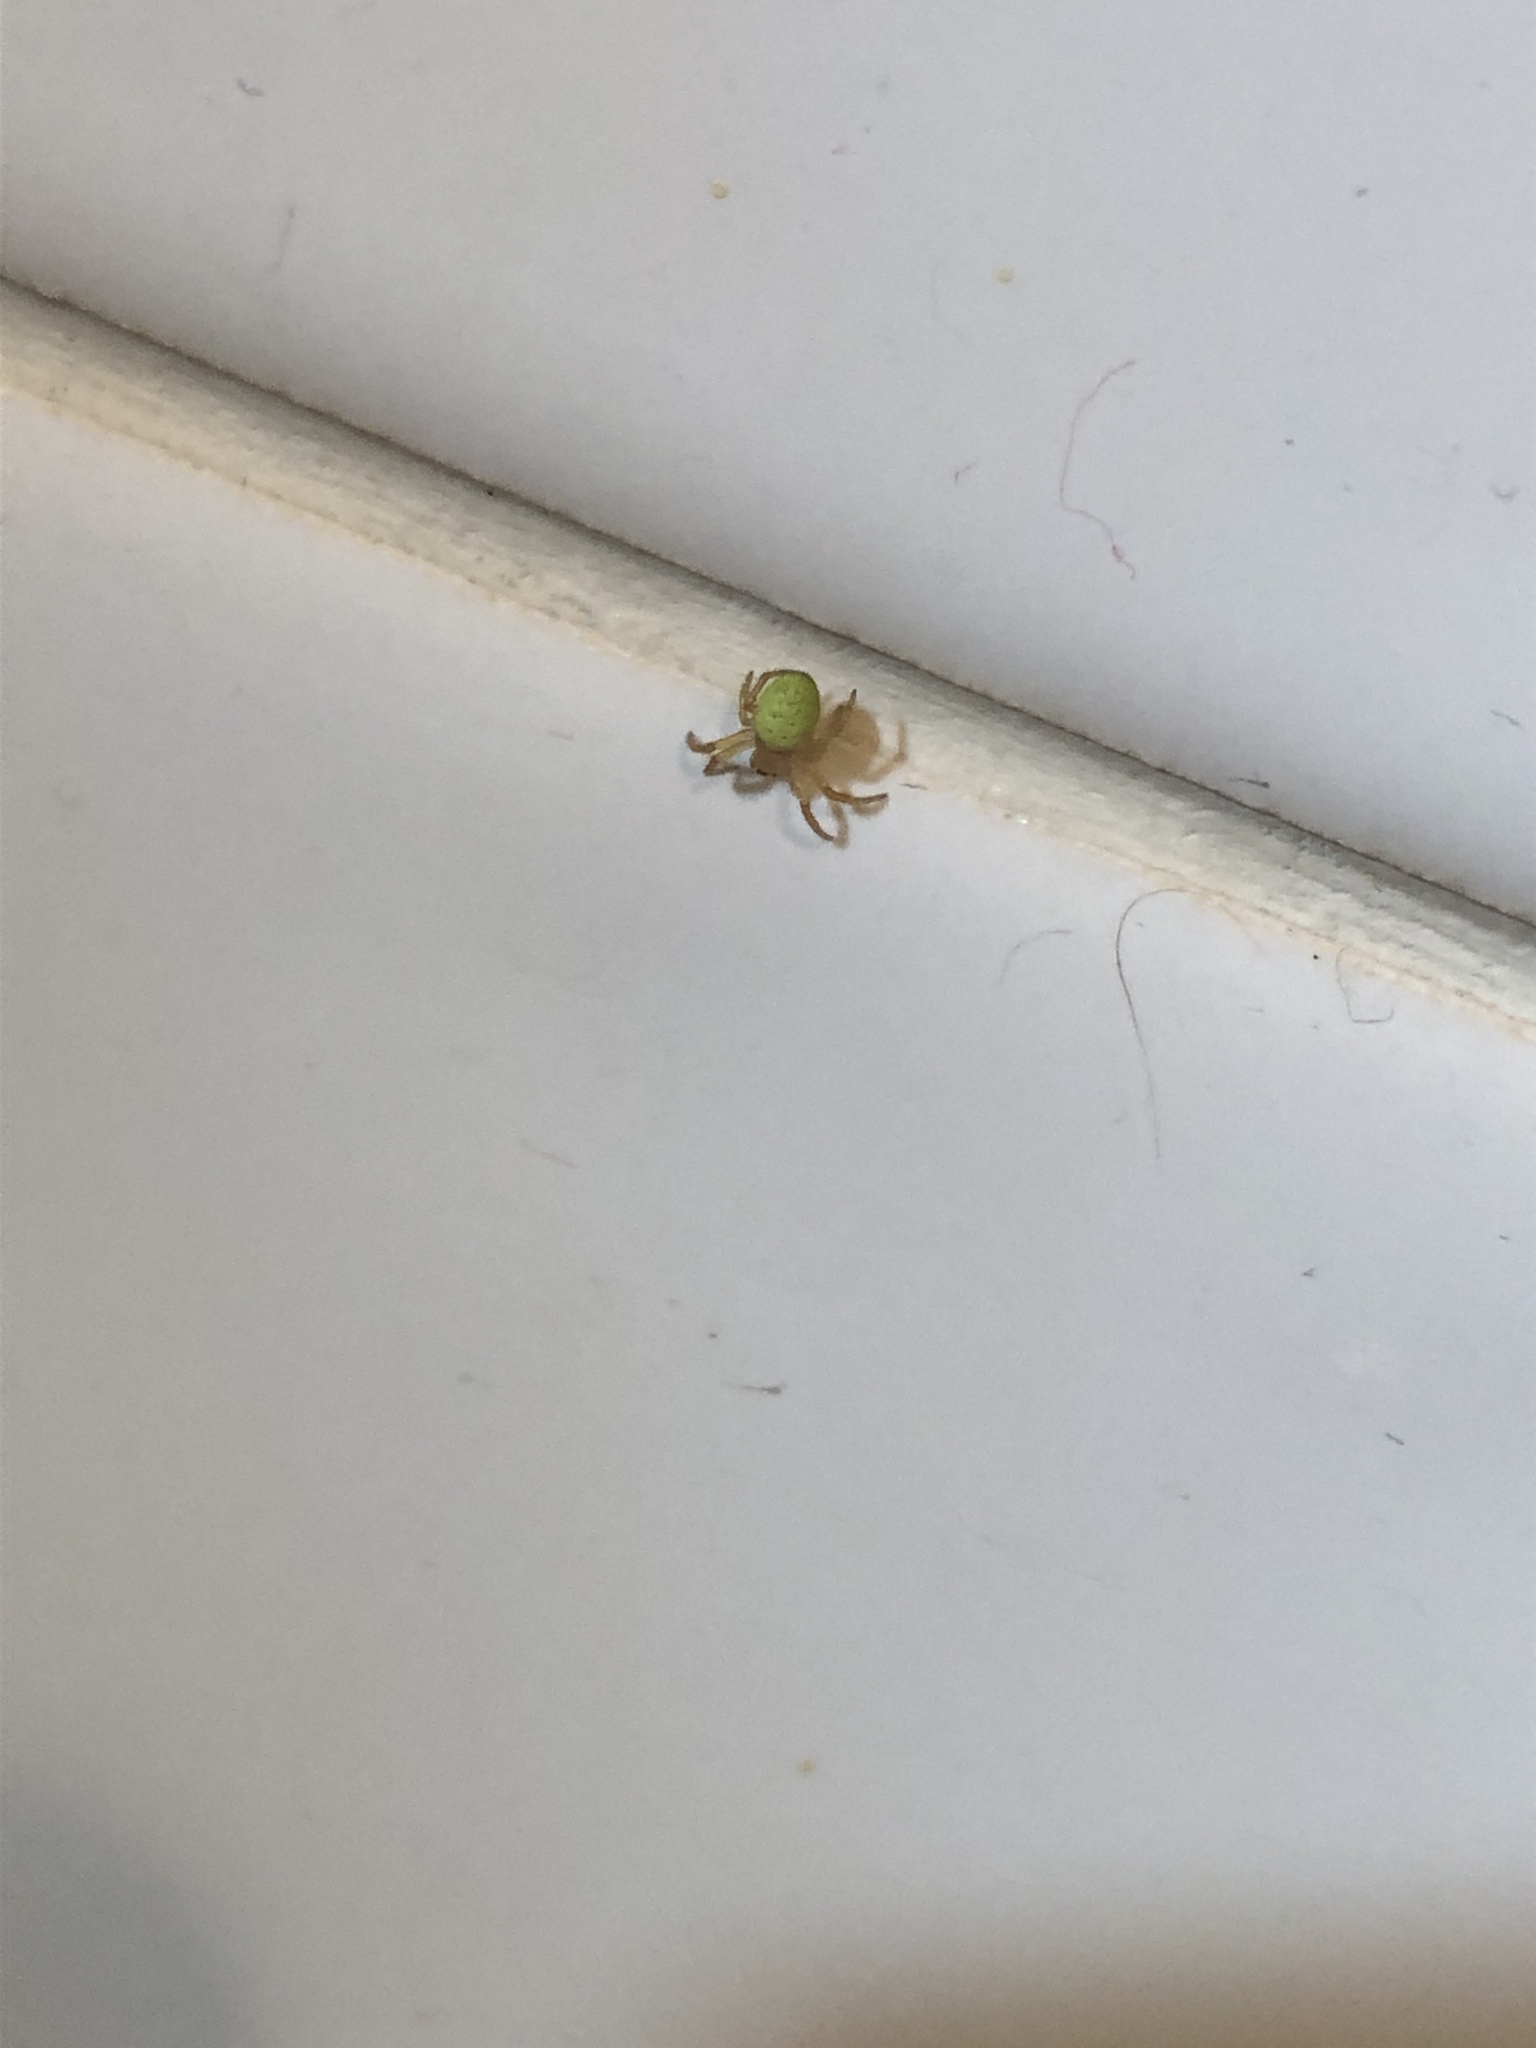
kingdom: Animalia
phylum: Arthropoda
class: Arachnida
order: Araneae
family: Araneidae
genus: Araniella
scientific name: Araniella
